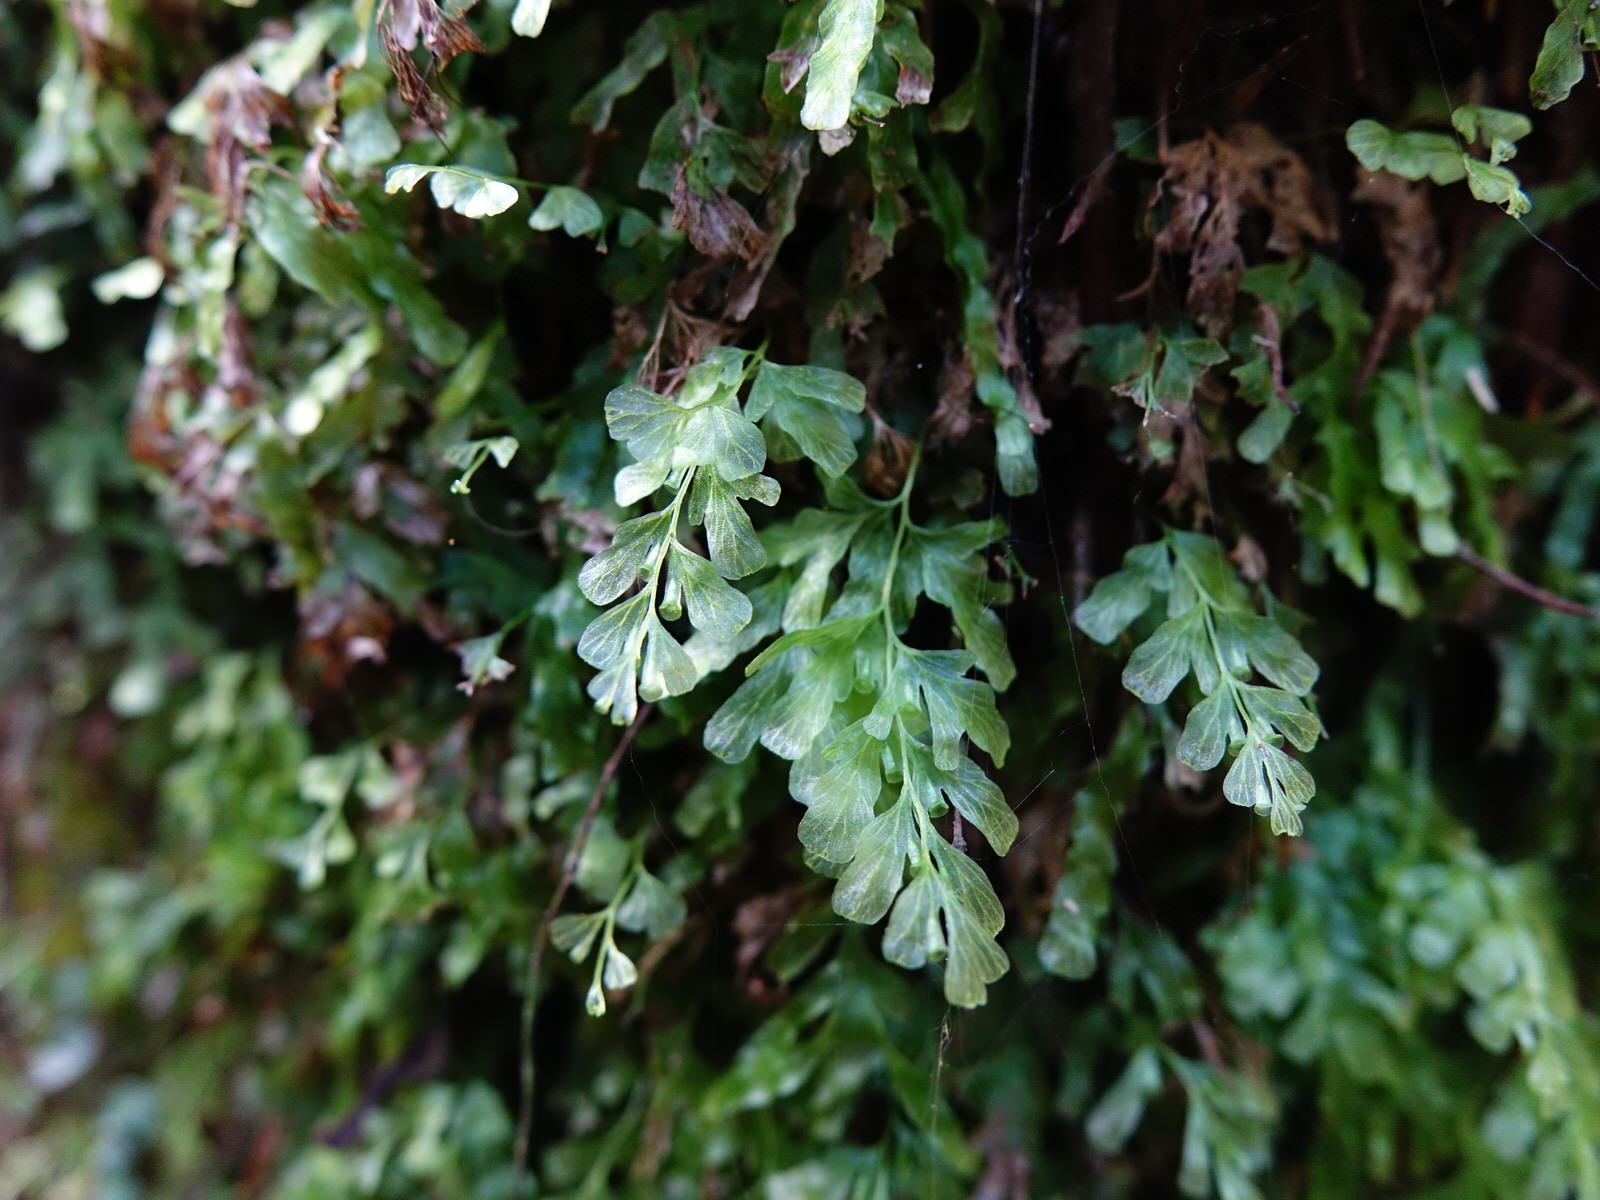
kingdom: Plantae
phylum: Tracheophyta
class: Polypodiopsida
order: Hymenophyllales
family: Hymenophyllaceae
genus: Polyphlebium
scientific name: Polyphlebium venosum
